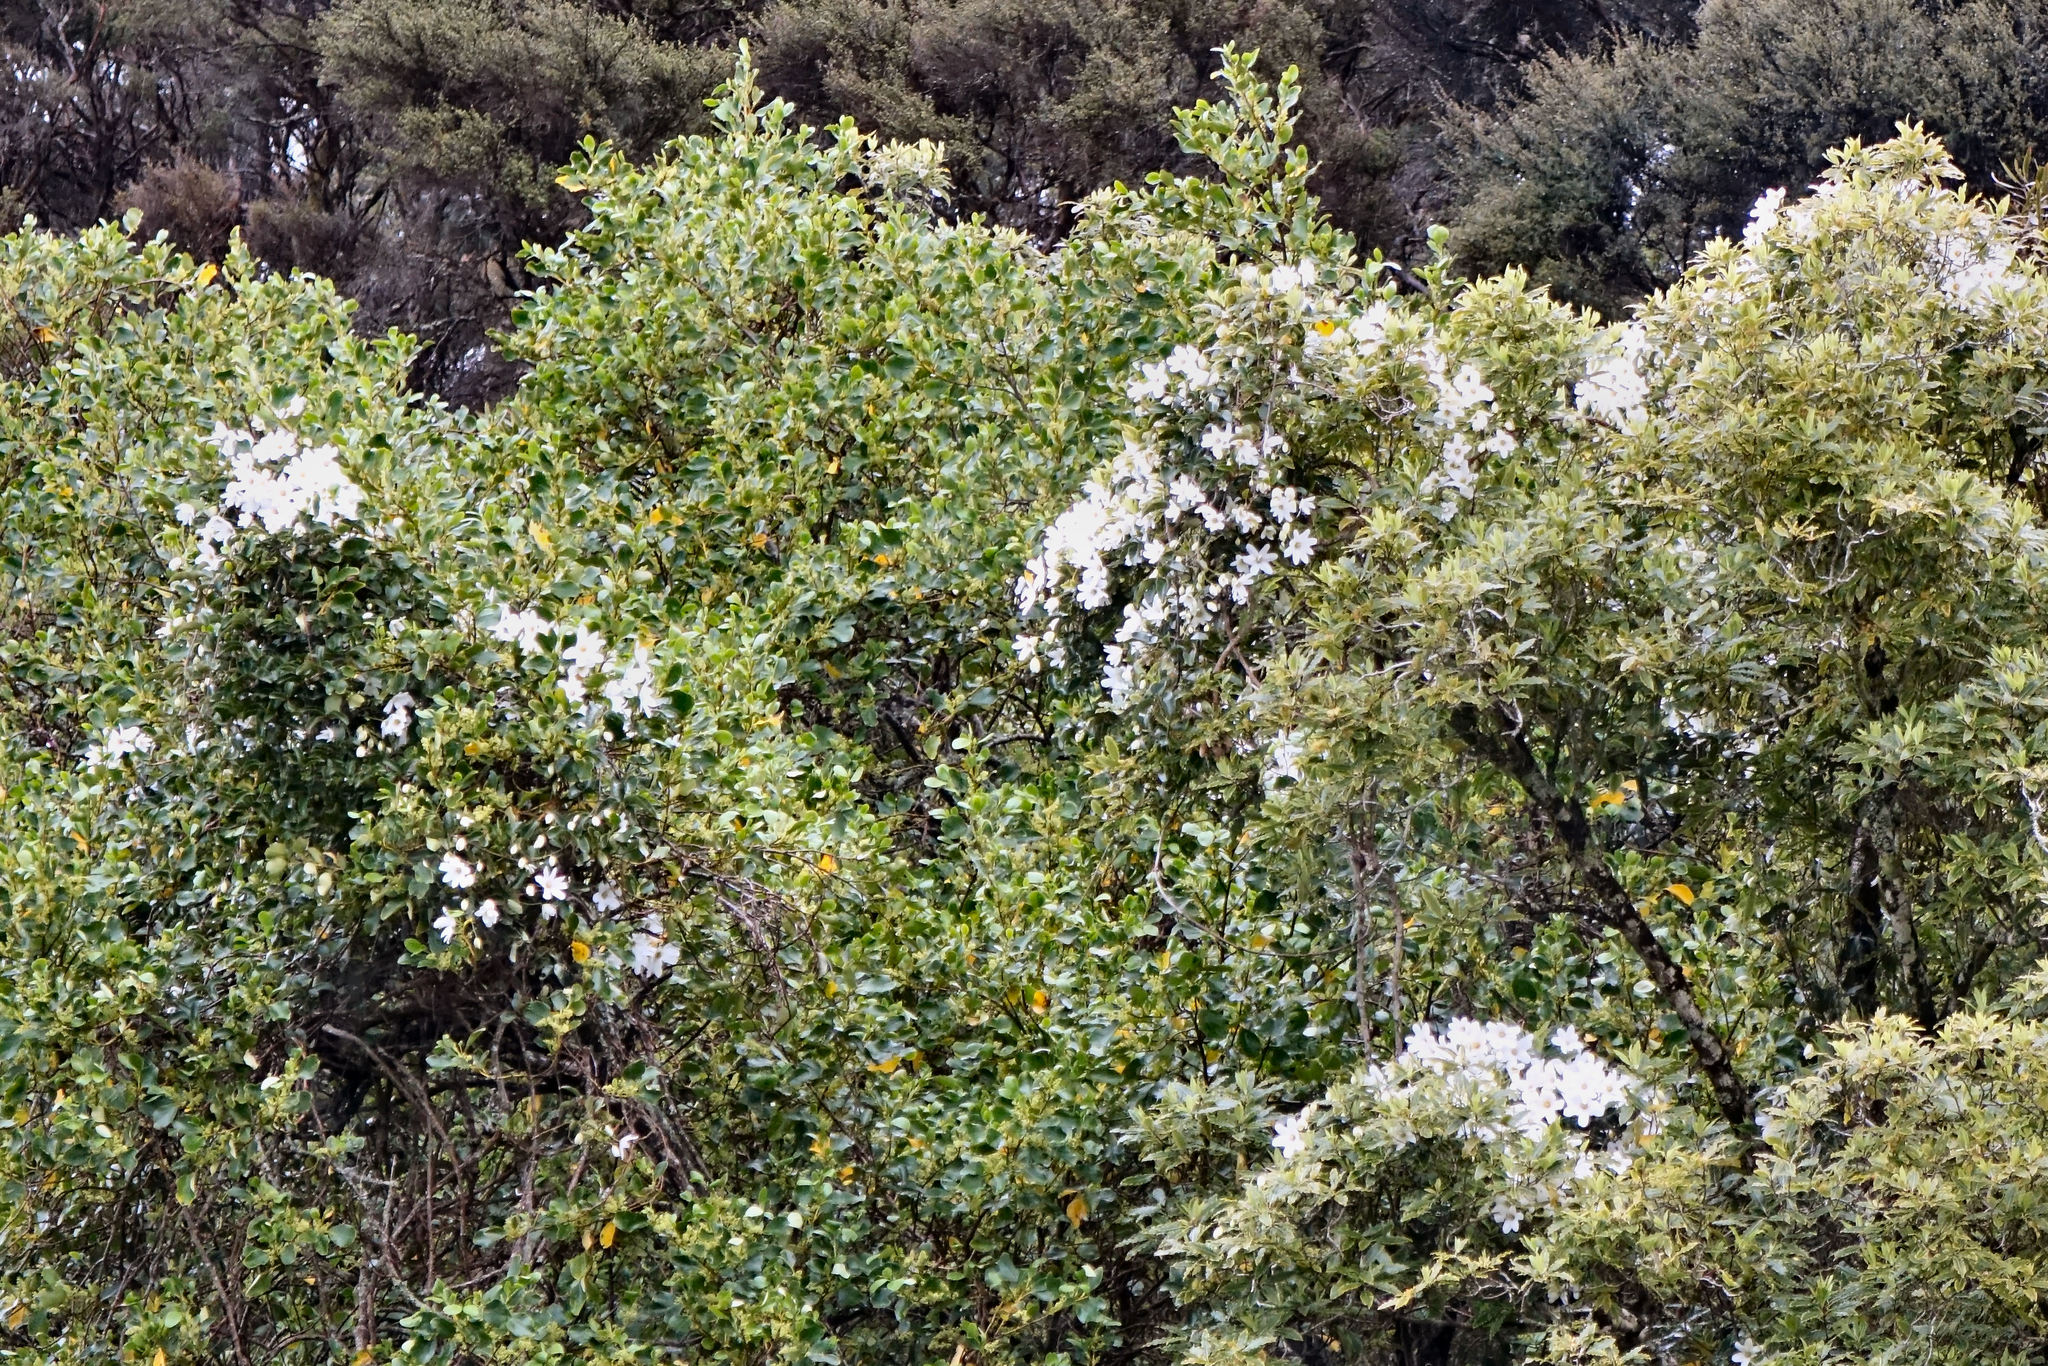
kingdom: Plantae
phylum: Tracheophyta
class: Magnoliopsida
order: Ranunculales
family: Ranunculaceae
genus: Clematis
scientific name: Clematis paniculata
